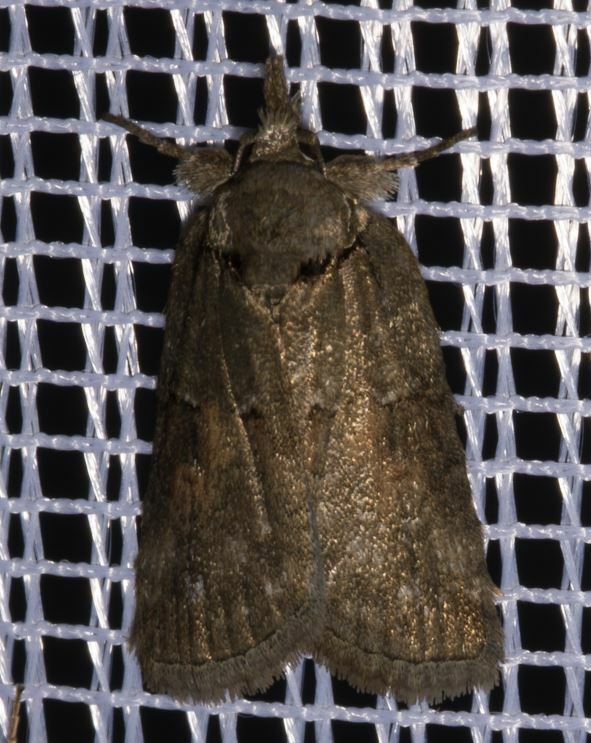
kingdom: Animalia
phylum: Arthropoda
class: Insecta
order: Lepidoptera
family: Nolidae
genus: Nycteola
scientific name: Nycteola revayana
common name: Oak nycteoline
